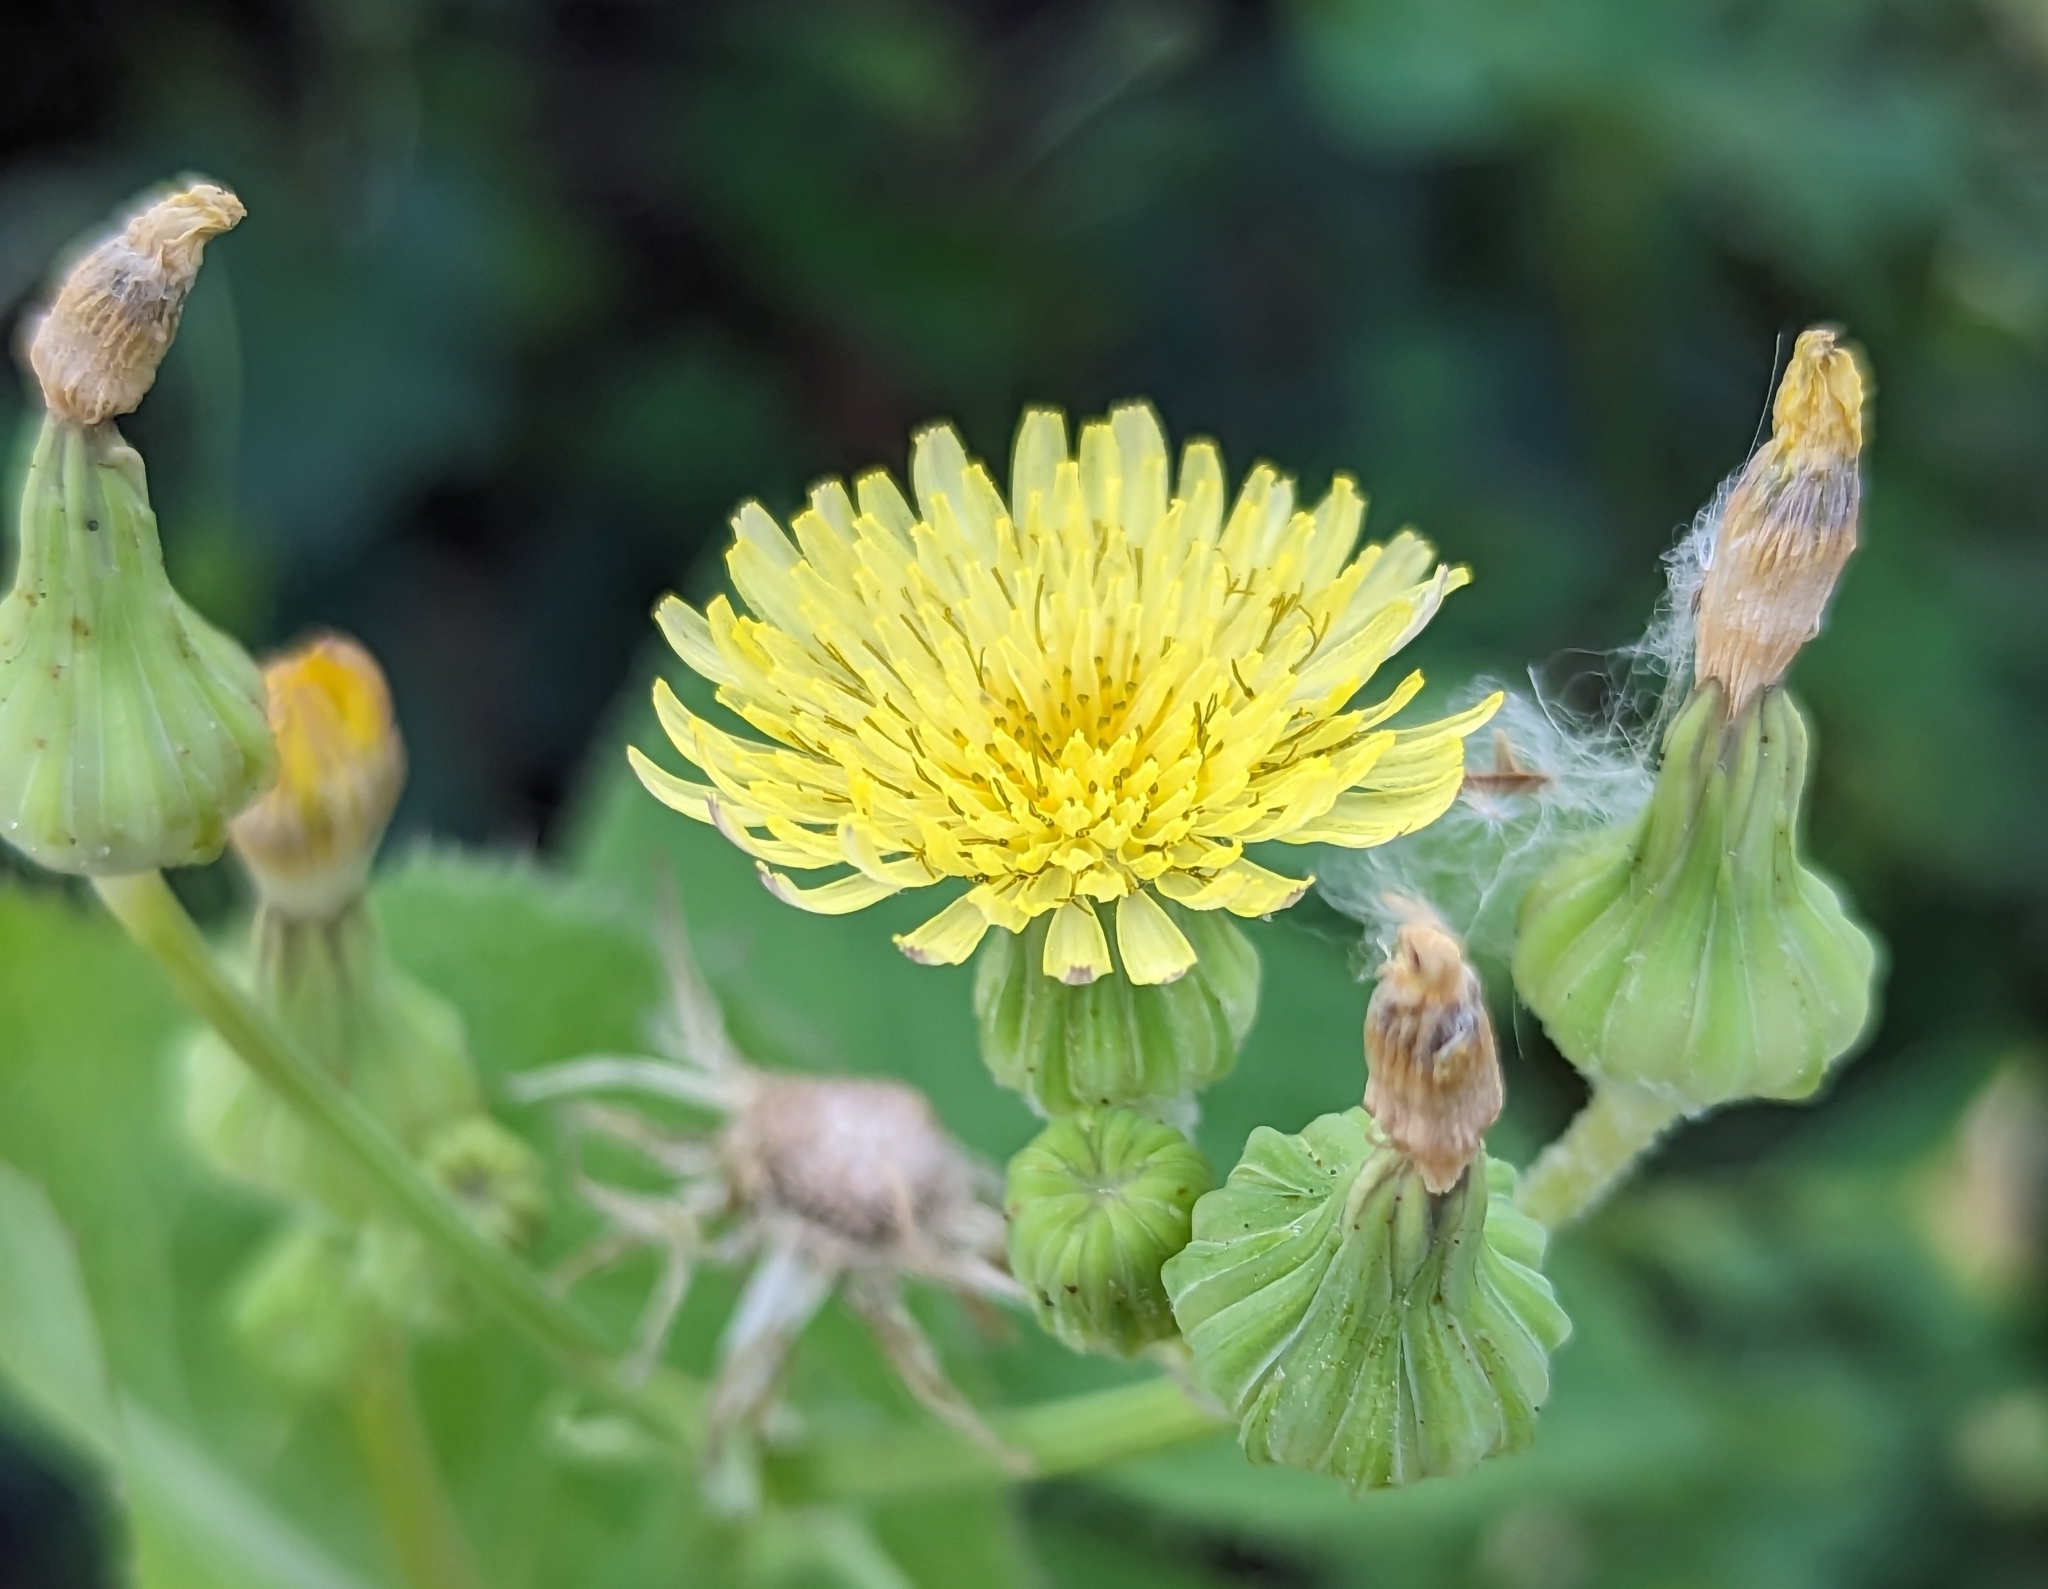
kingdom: Plantae
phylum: Tracheophyta
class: Magnoliopsida
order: Asterales
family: Asteraceae
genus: Sonchus
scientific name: Sonchus oleraceus
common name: Common sowthistle
